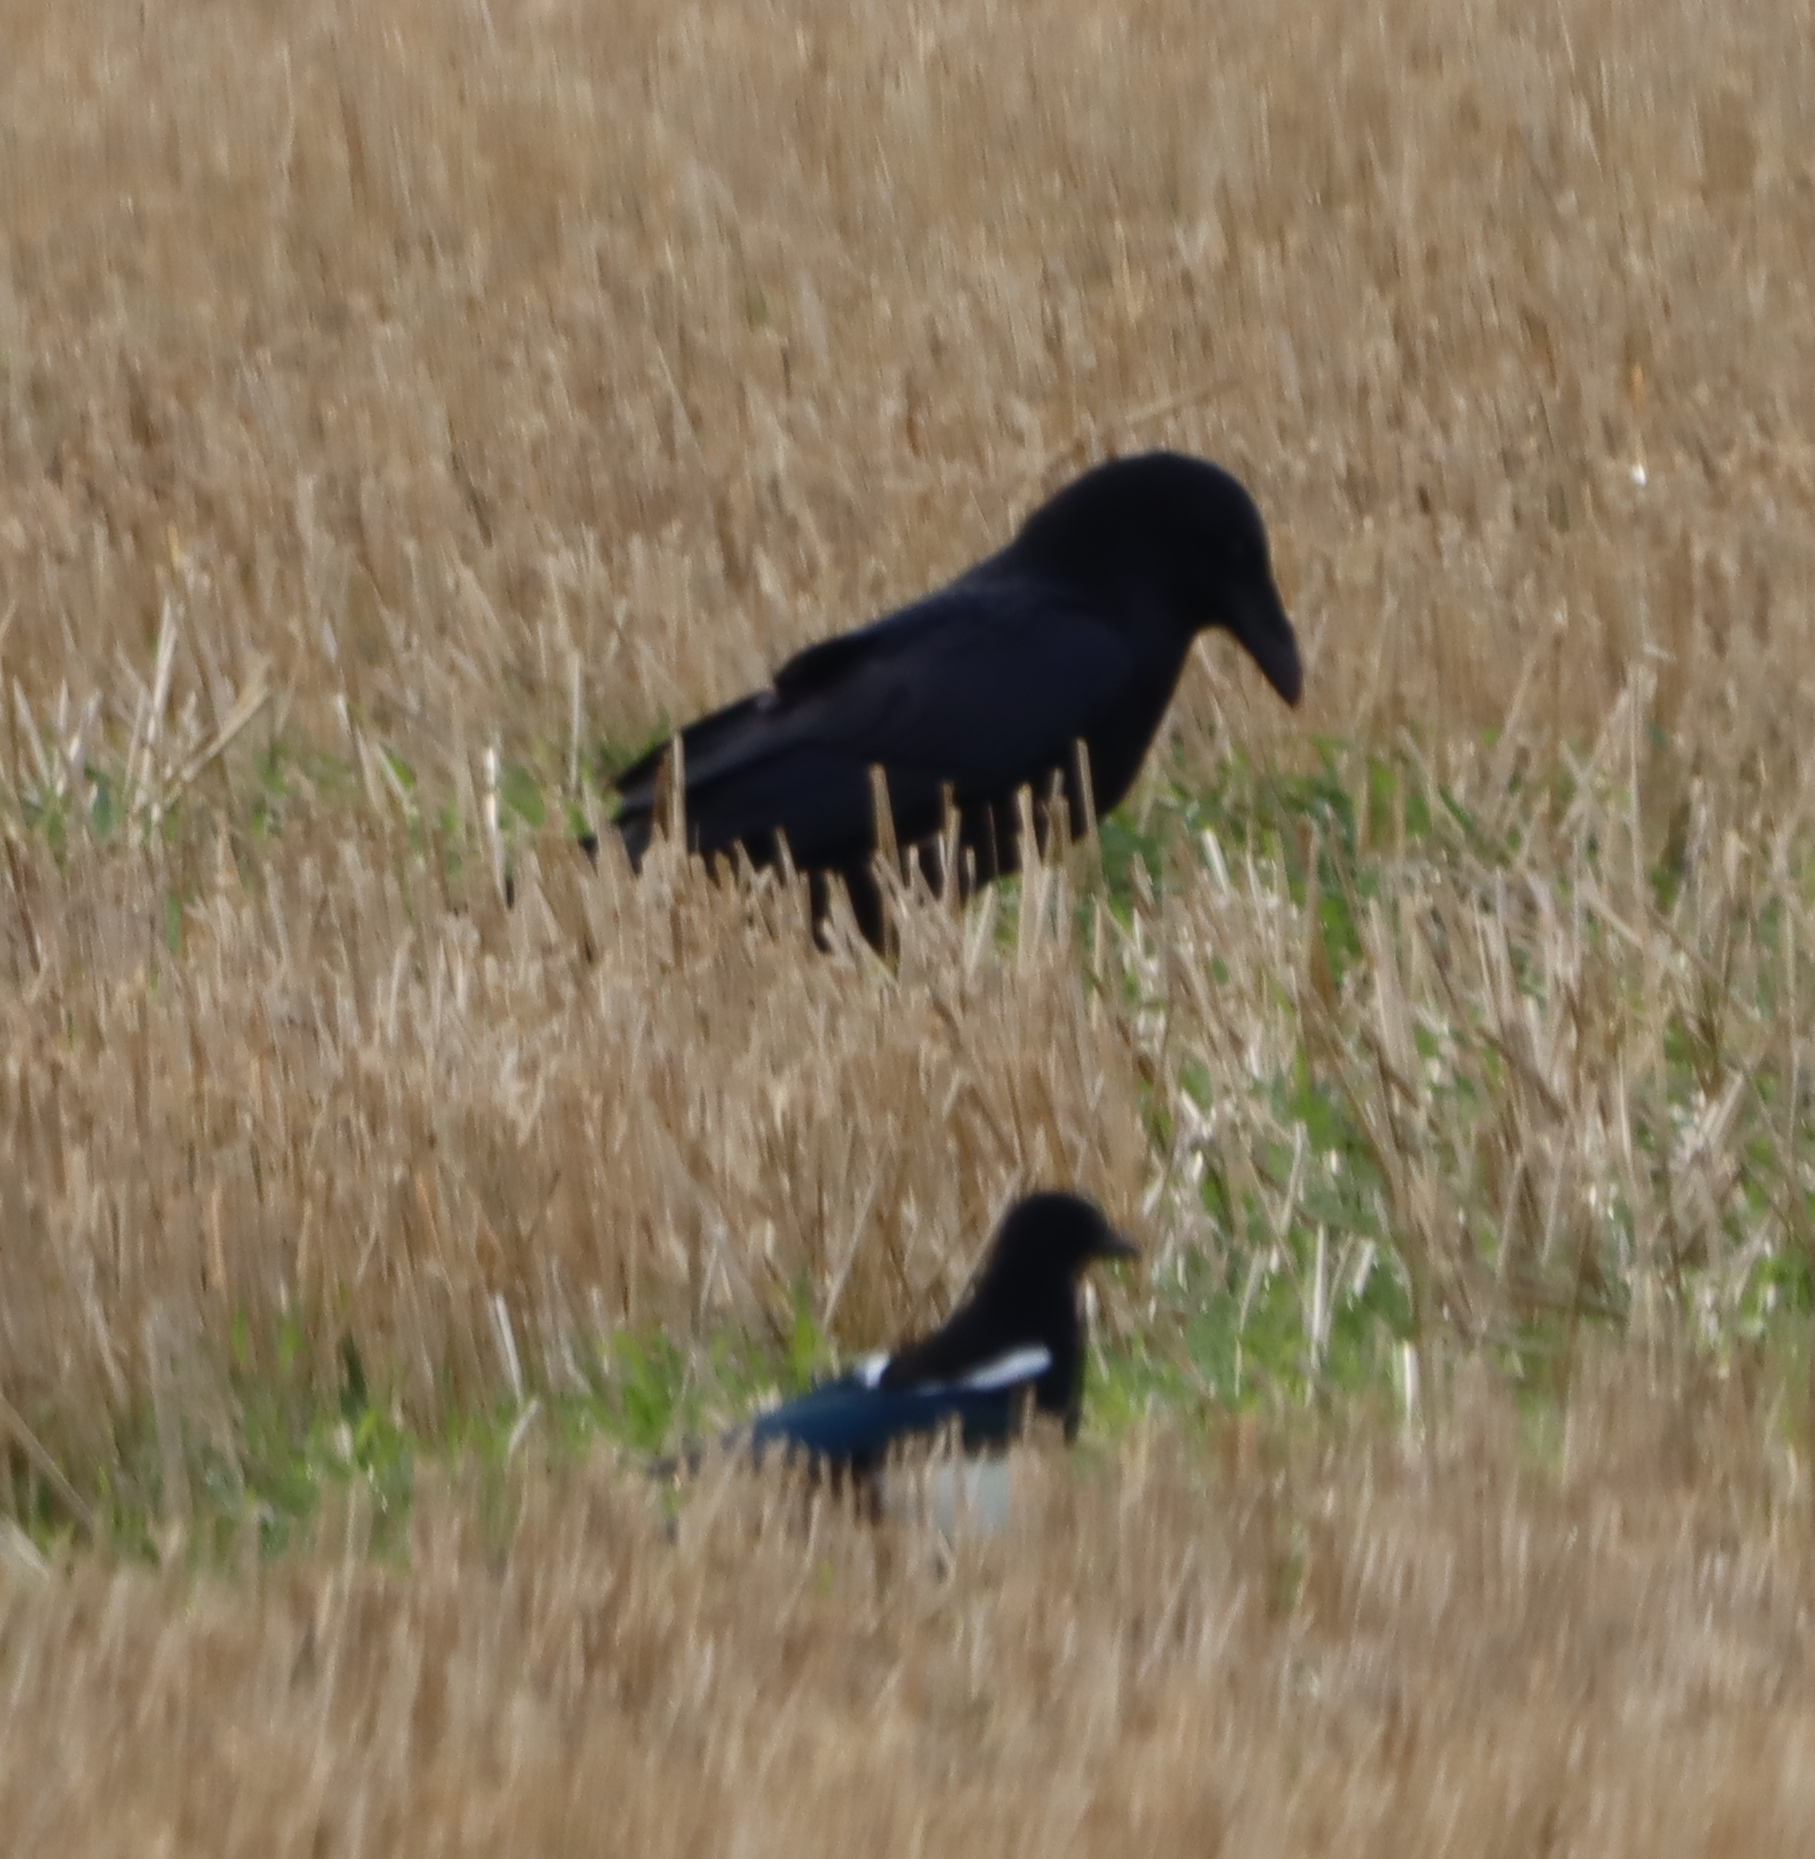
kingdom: Animalia
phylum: Chordata
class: Aves
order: Passeriformes
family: Corvidae
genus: Pica
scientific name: Pica hudsonia
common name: Black-billed magpie
